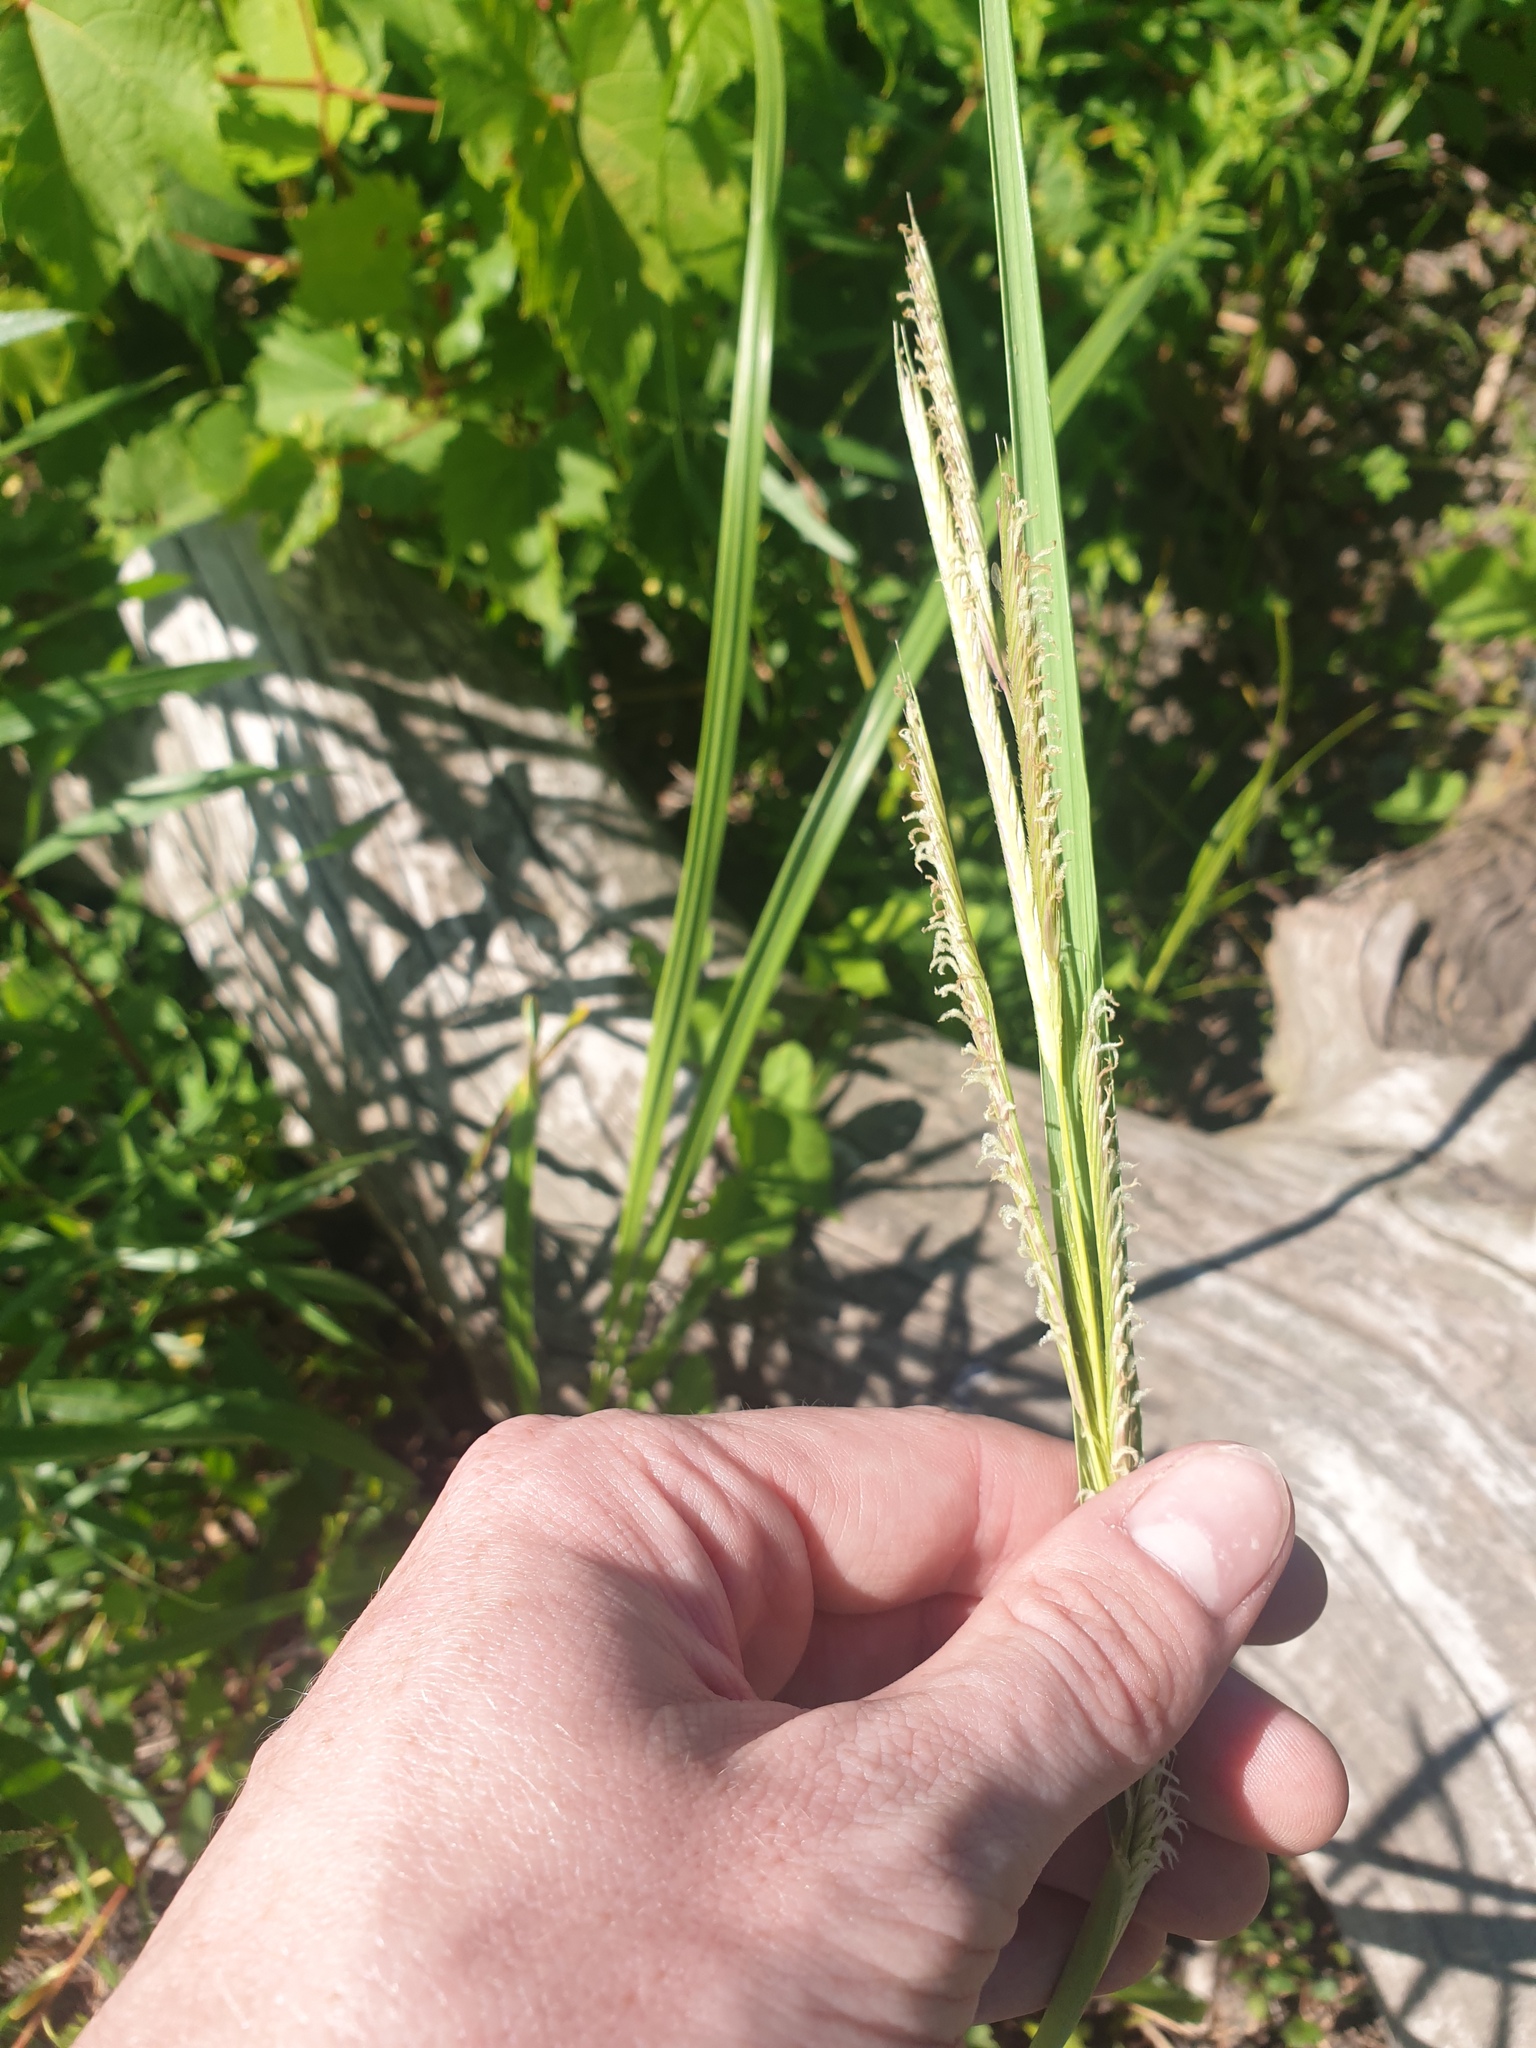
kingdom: Plantae
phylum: Tracheophyta
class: Liliopsida
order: Poales
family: Poaceae
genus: Sporobolus
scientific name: Sporobolus michauxianus
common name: Freshwater cordgrass
